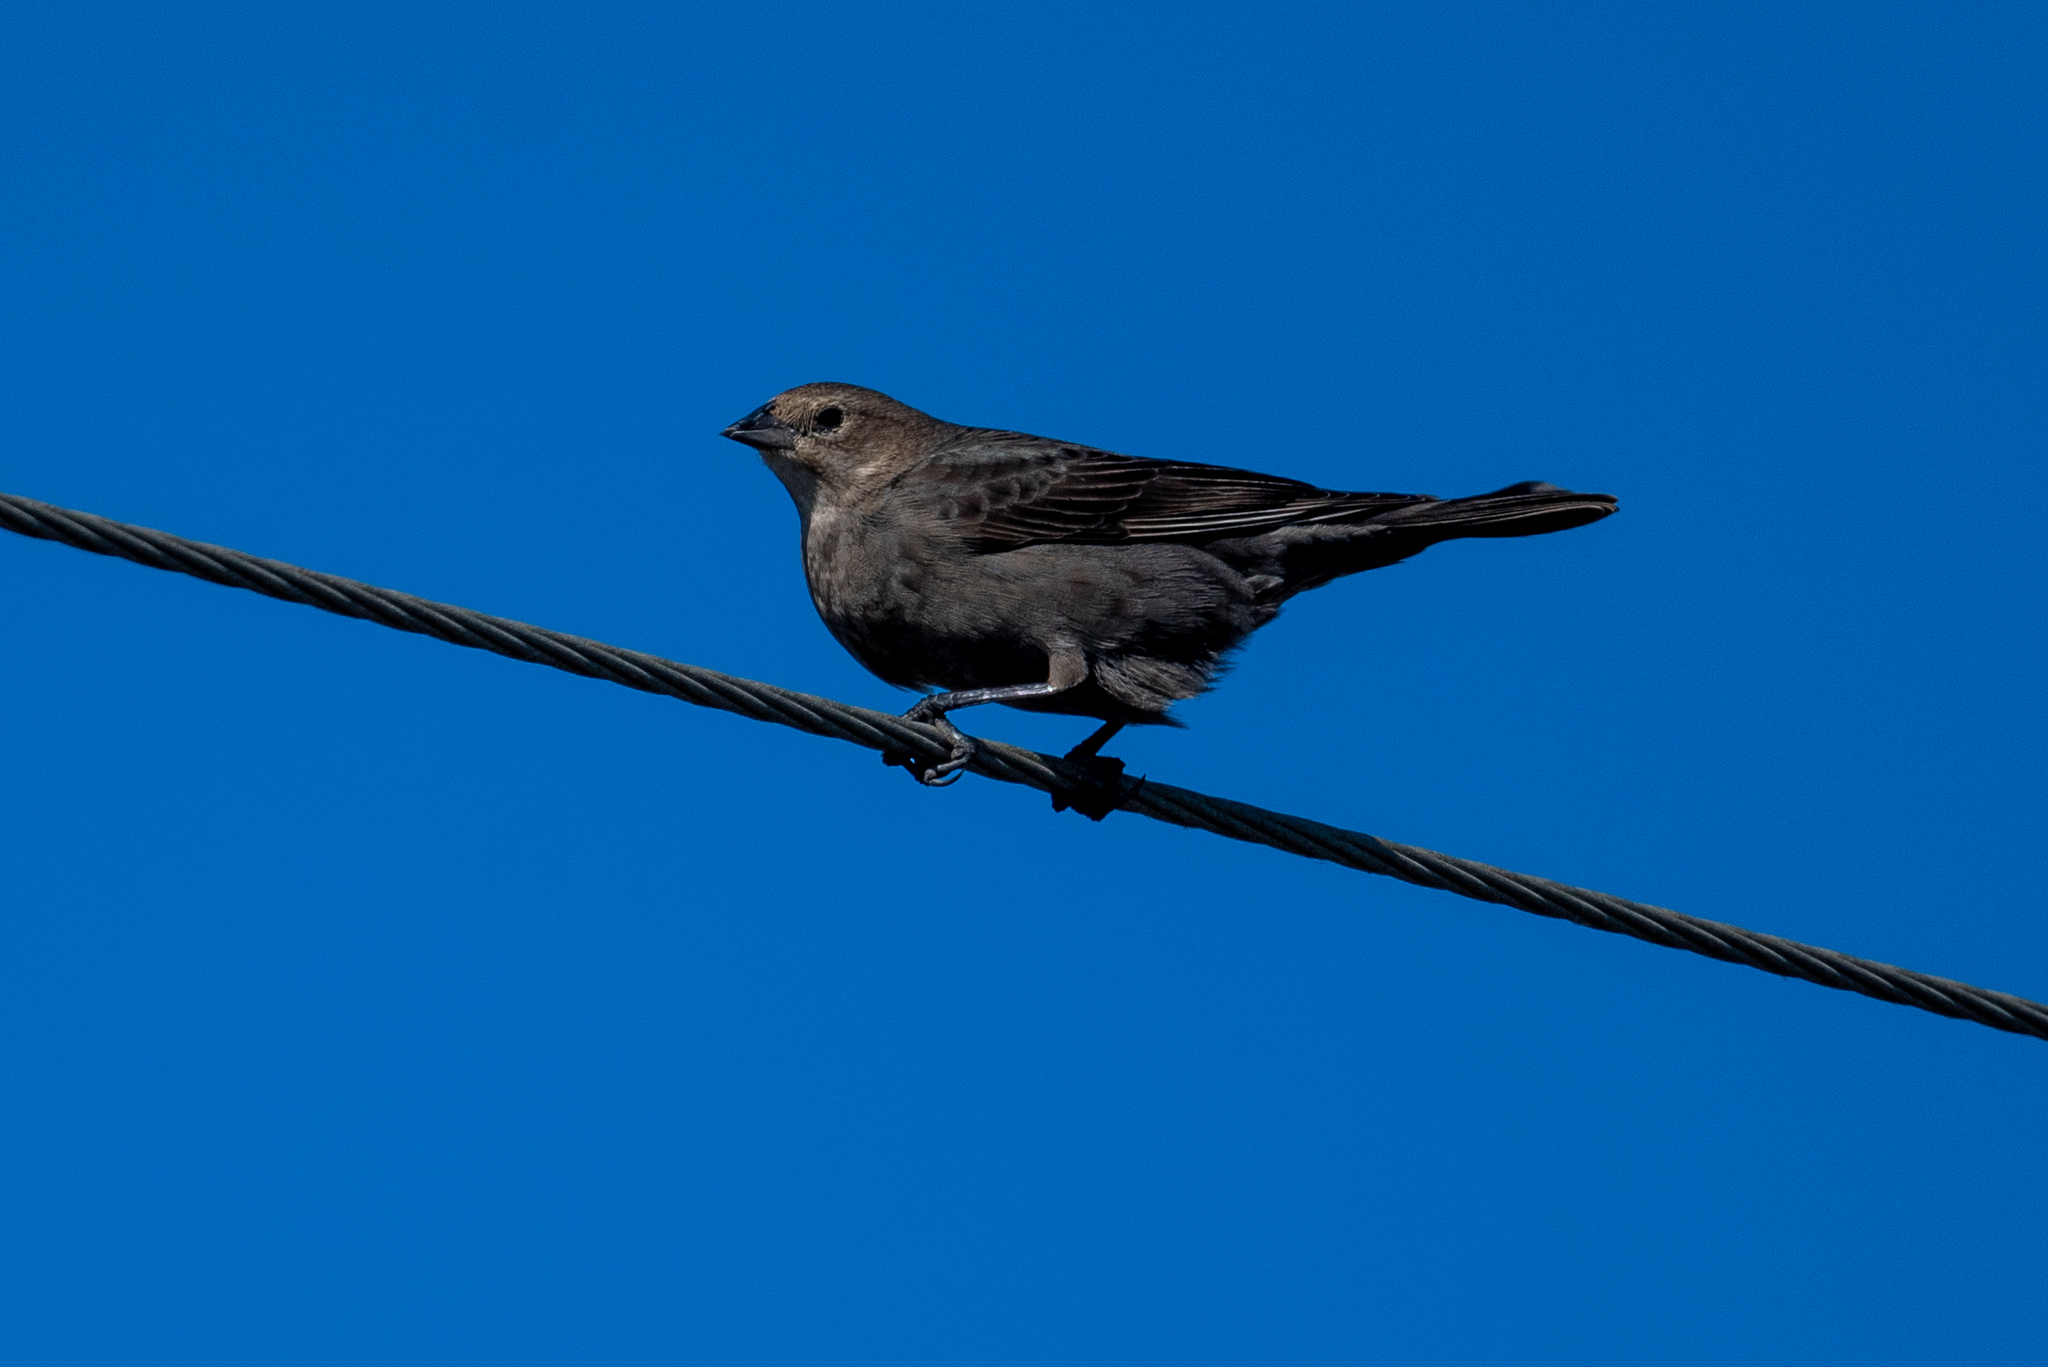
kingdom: Animalia
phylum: Chordata
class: Aves
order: Passeriformes
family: Icteridae
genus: Molothrus
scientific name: Molothrus ater
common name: Brown-headed cowbird
